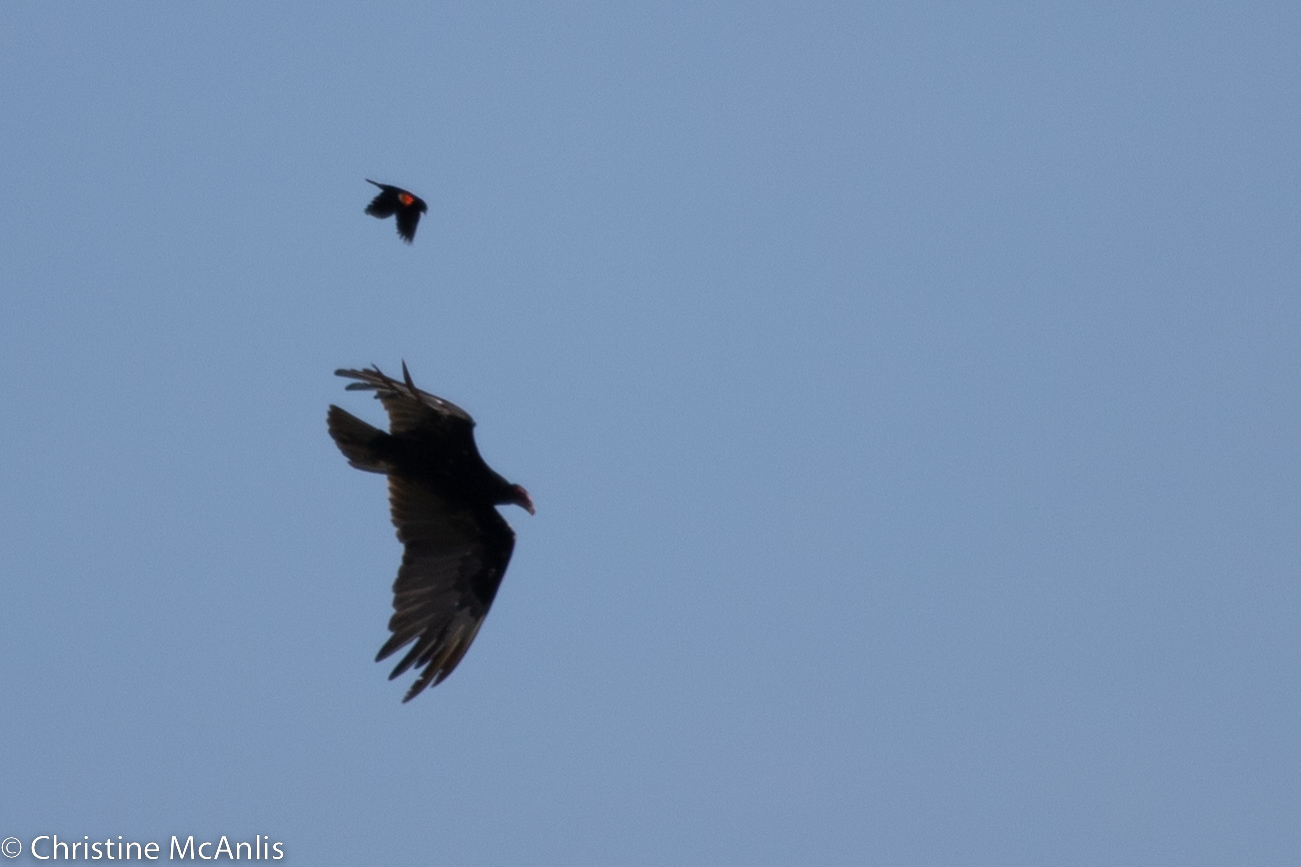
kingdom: Animalia
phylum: Chordata
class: Aves
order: Accipitriformes
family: Cathartidae
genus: Cathartes
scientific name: Cathartes aura
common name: Turkey vulture
